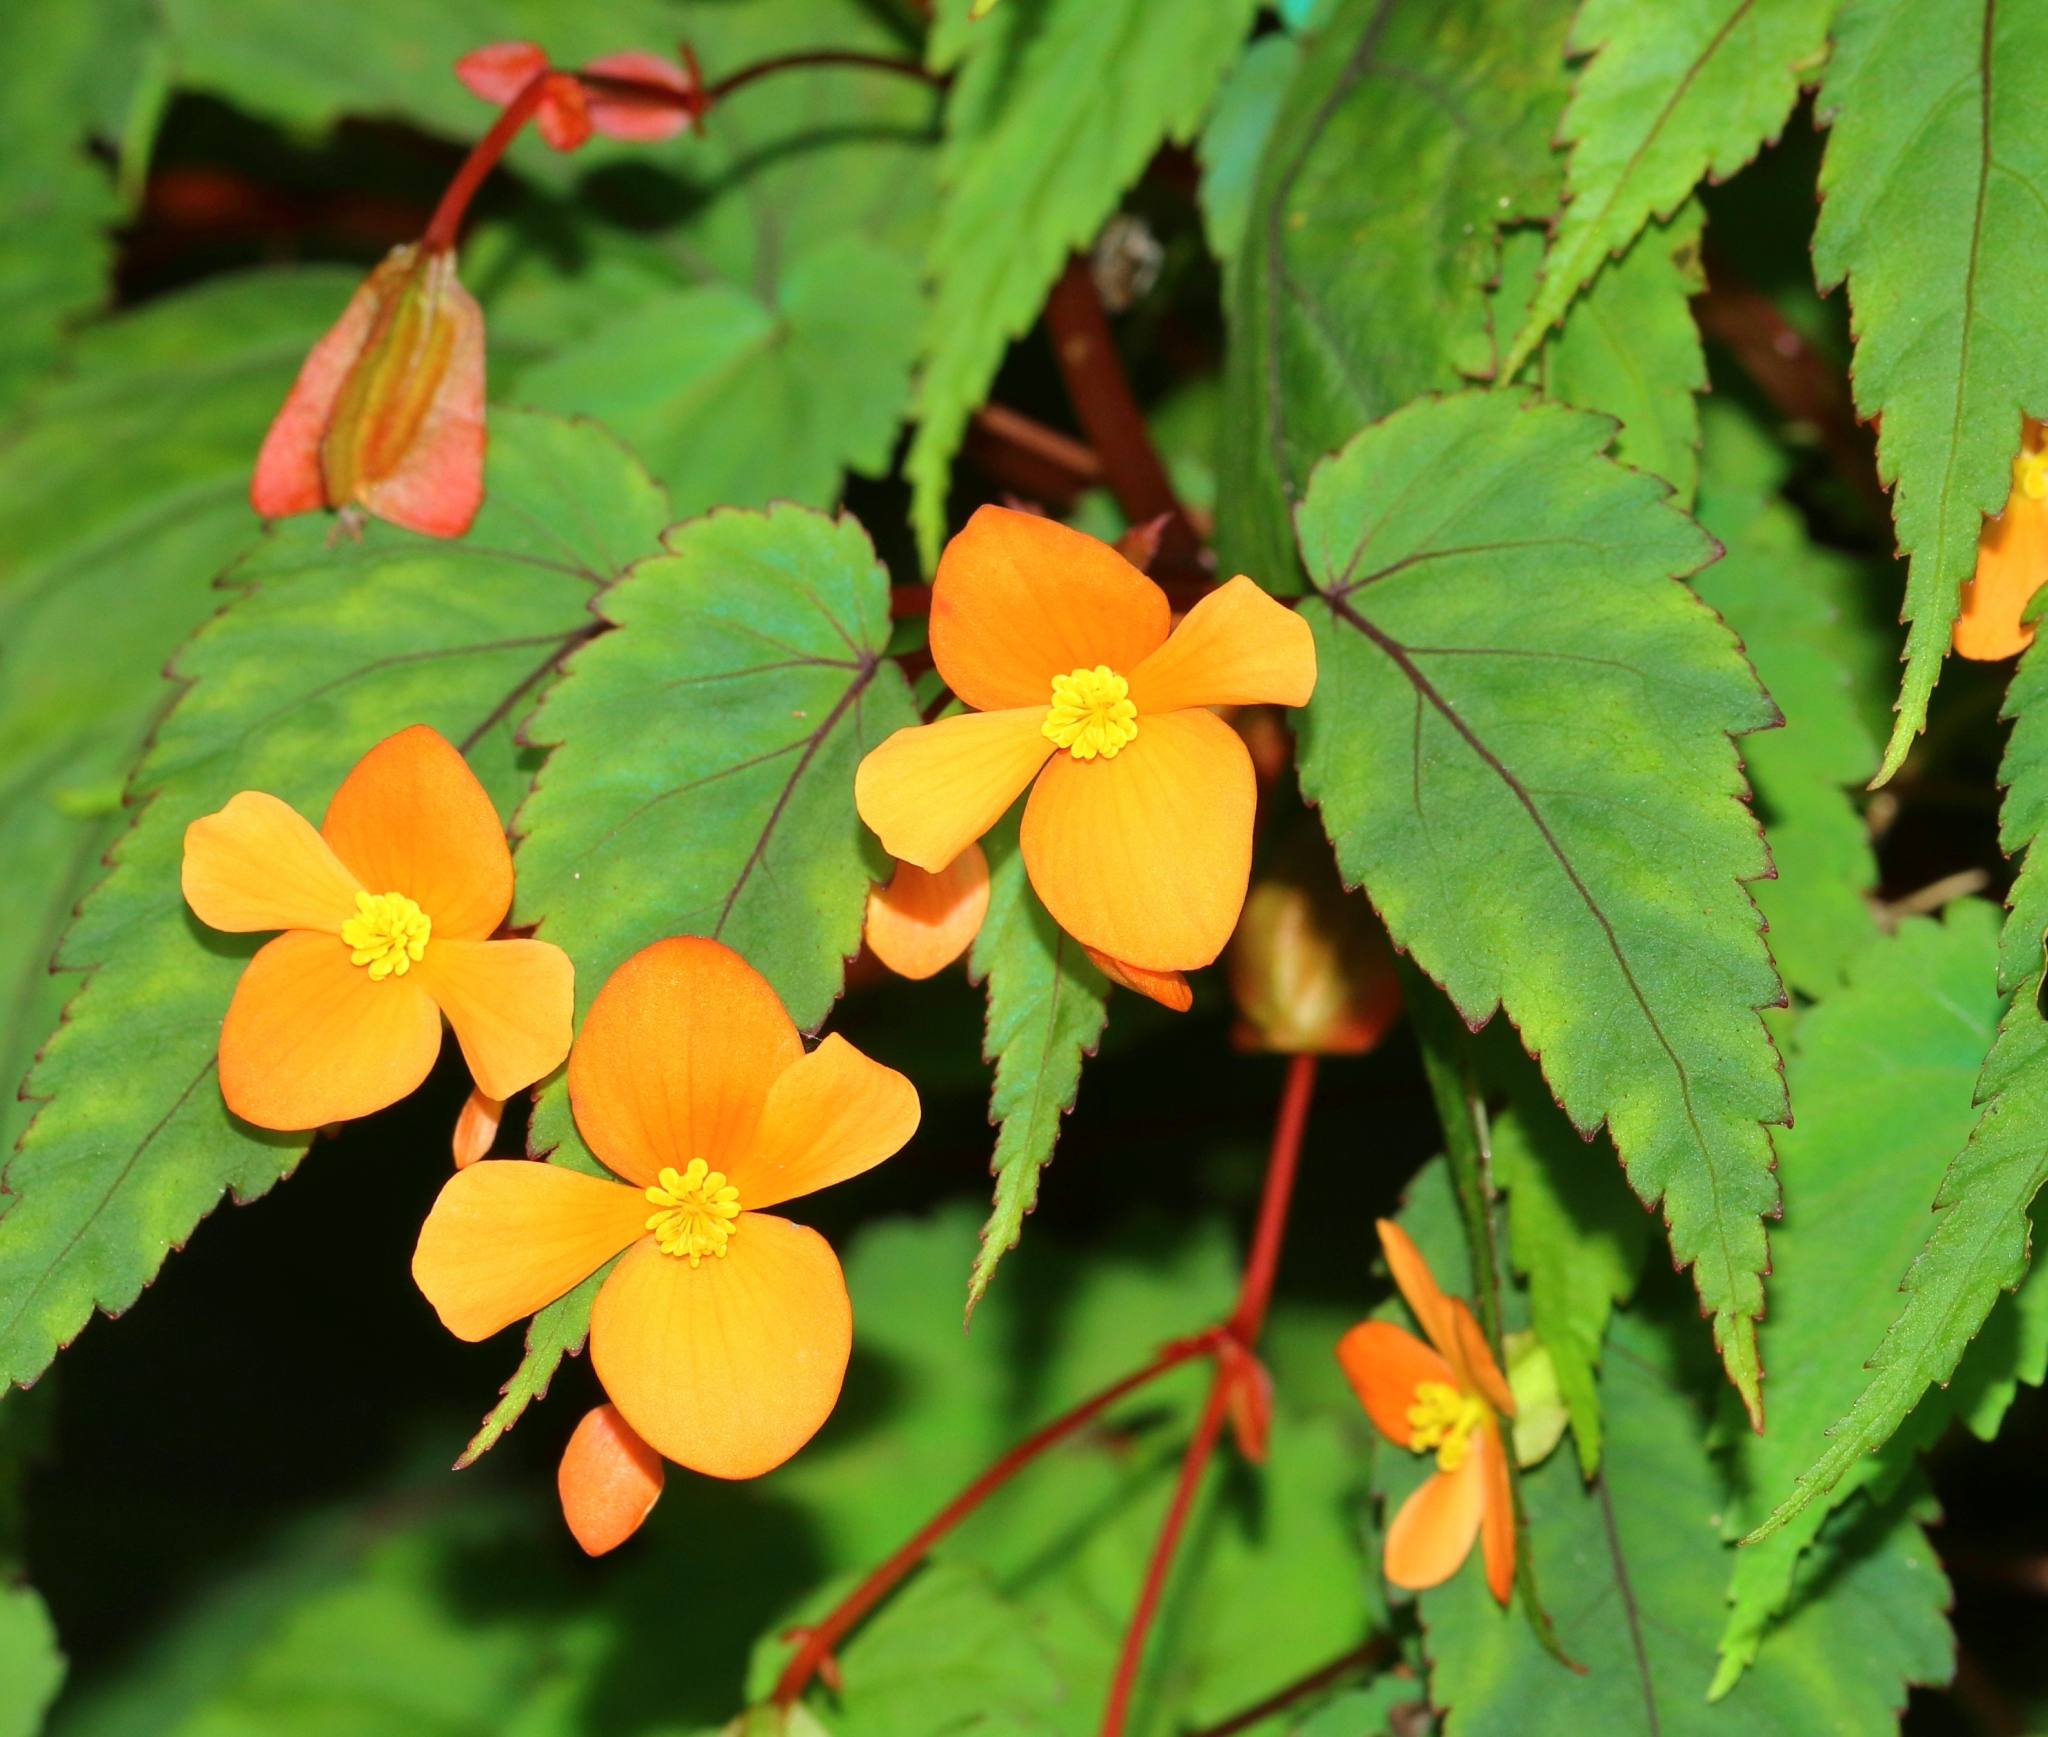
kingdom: Plantae
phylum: Tracheophyta
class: Magnoliopsida
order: Cucurbitales
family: Begoniaceae
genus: Begonia
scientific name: Begonia sutherlandii
